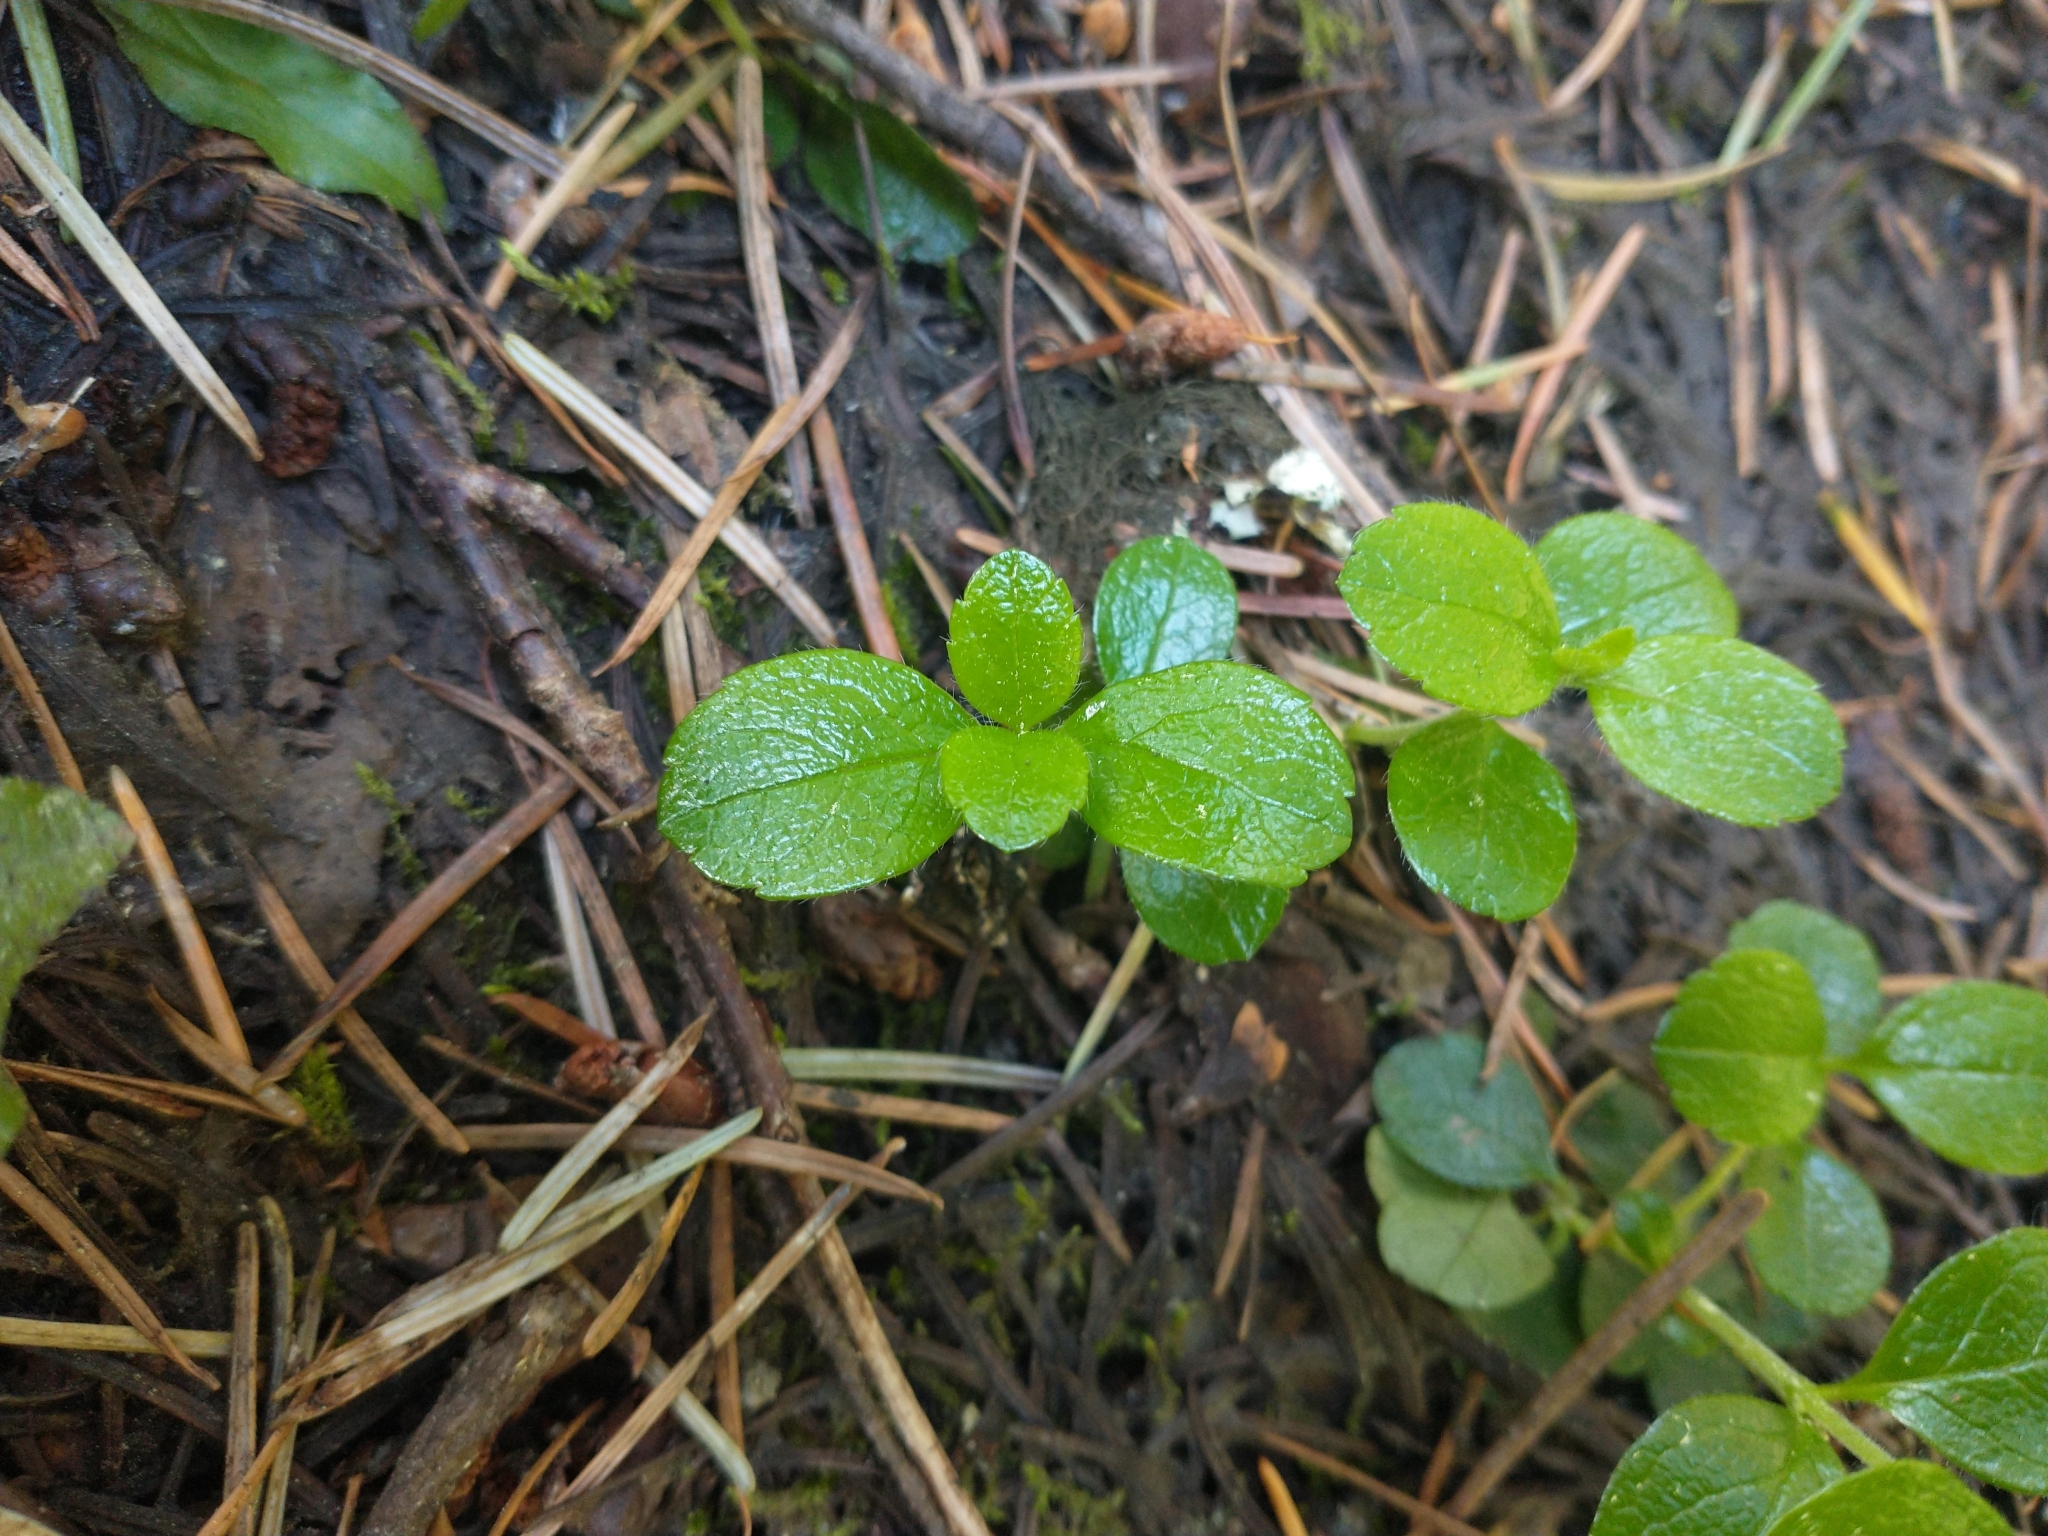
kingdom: Plantae
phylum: Tracheophyta
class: Magnoliopsida
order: Dipsacales
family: Caprifoliaceae
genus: Linnaea
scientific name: Linnaea borealis
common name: Twinflower
